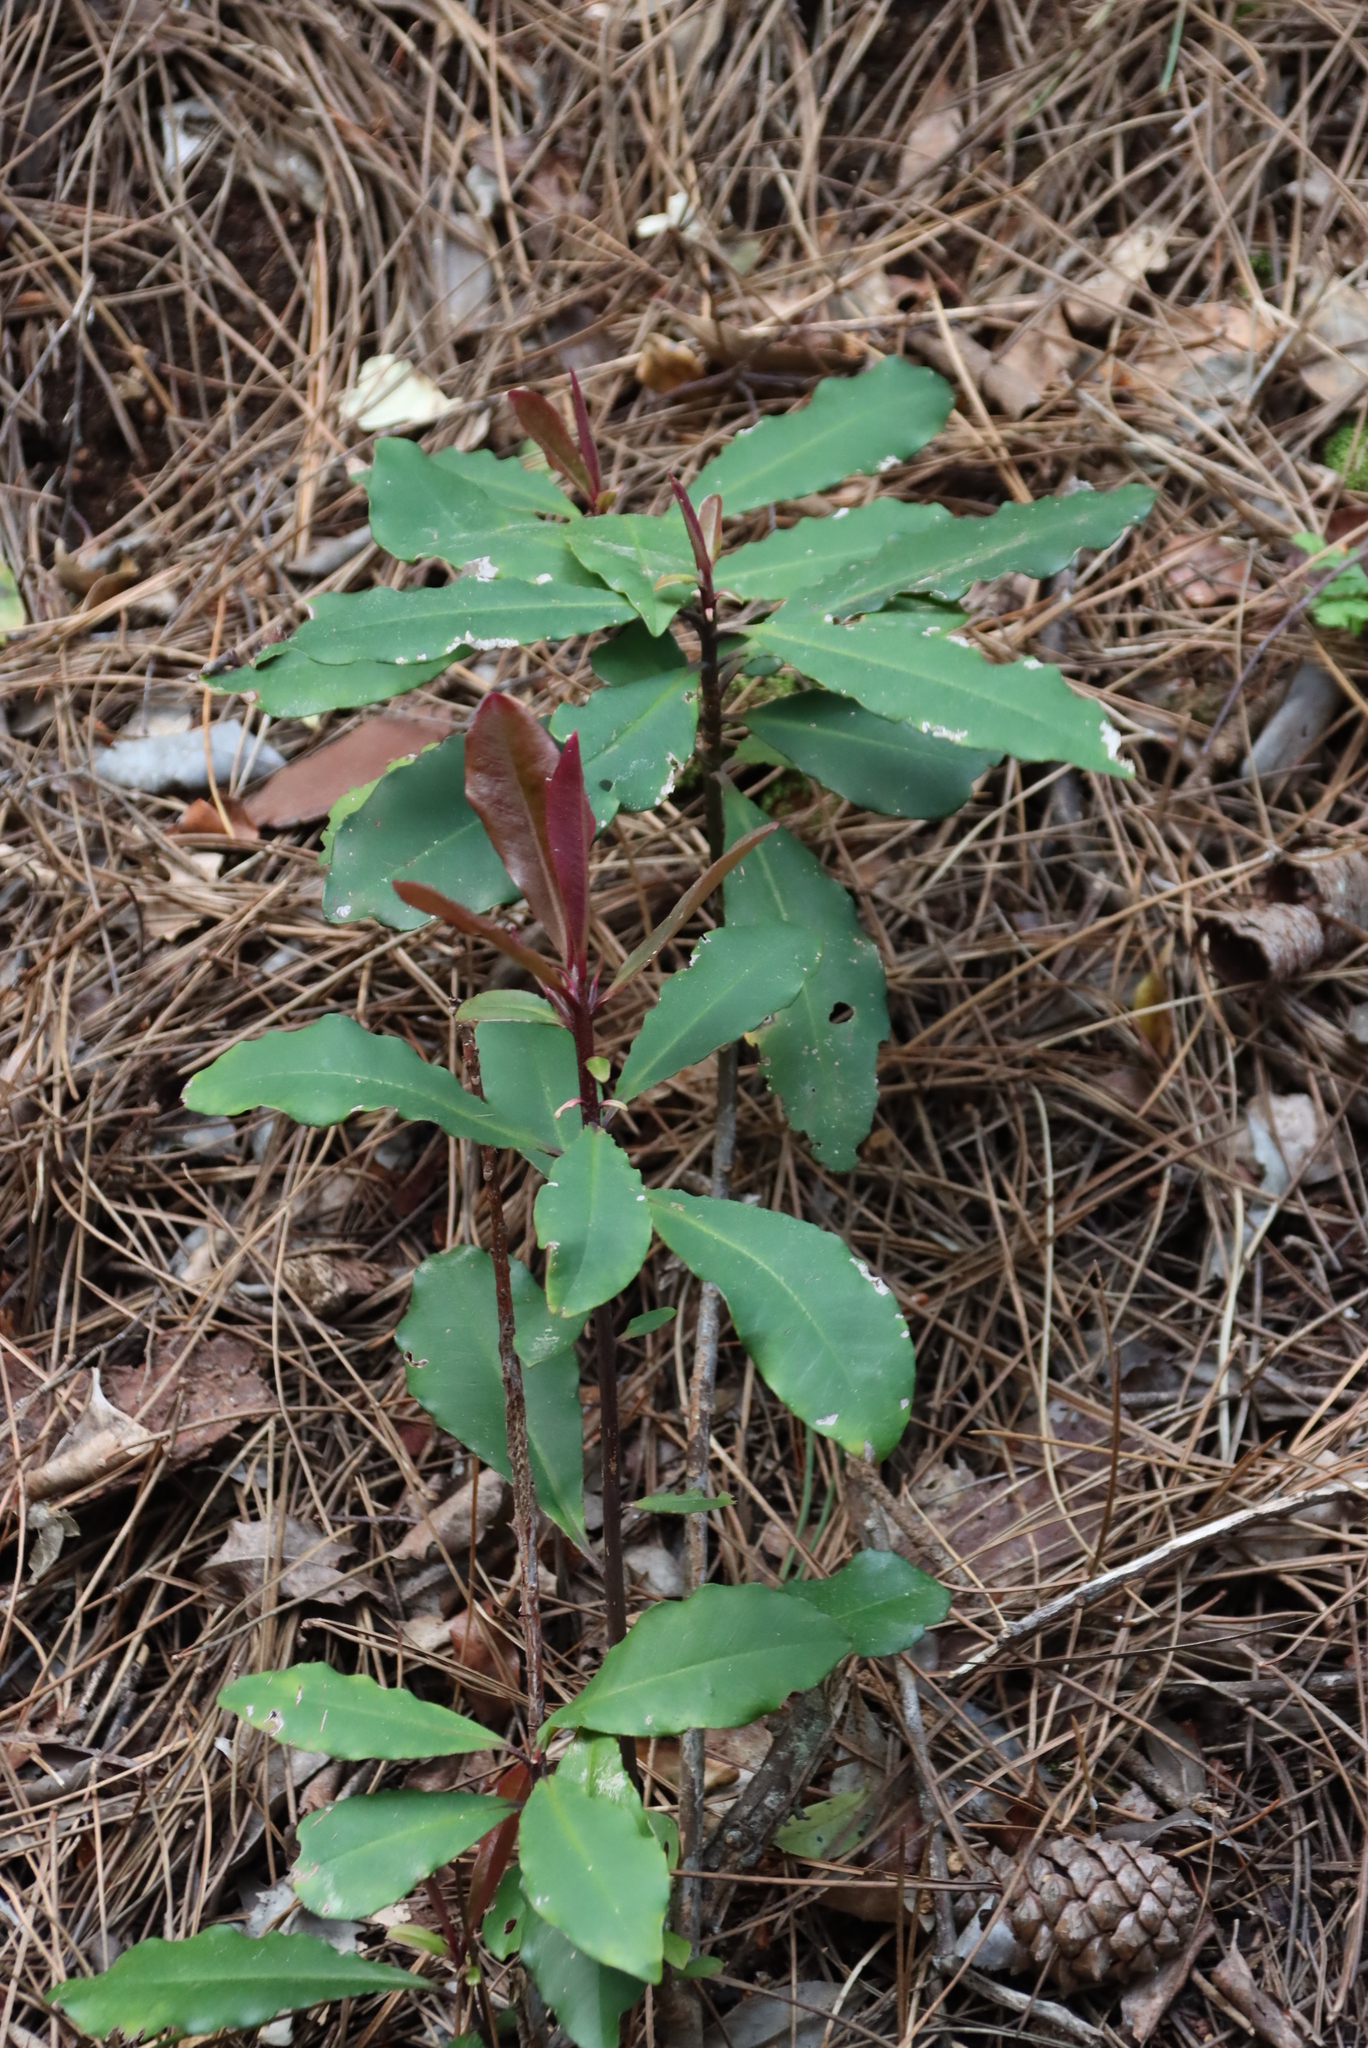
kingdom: Plantae
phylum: Tracheophyta
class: Magnoliopsida
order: Ericales
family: Primulaceae
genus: Myrsine
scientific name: Myrsine melanophloeos
